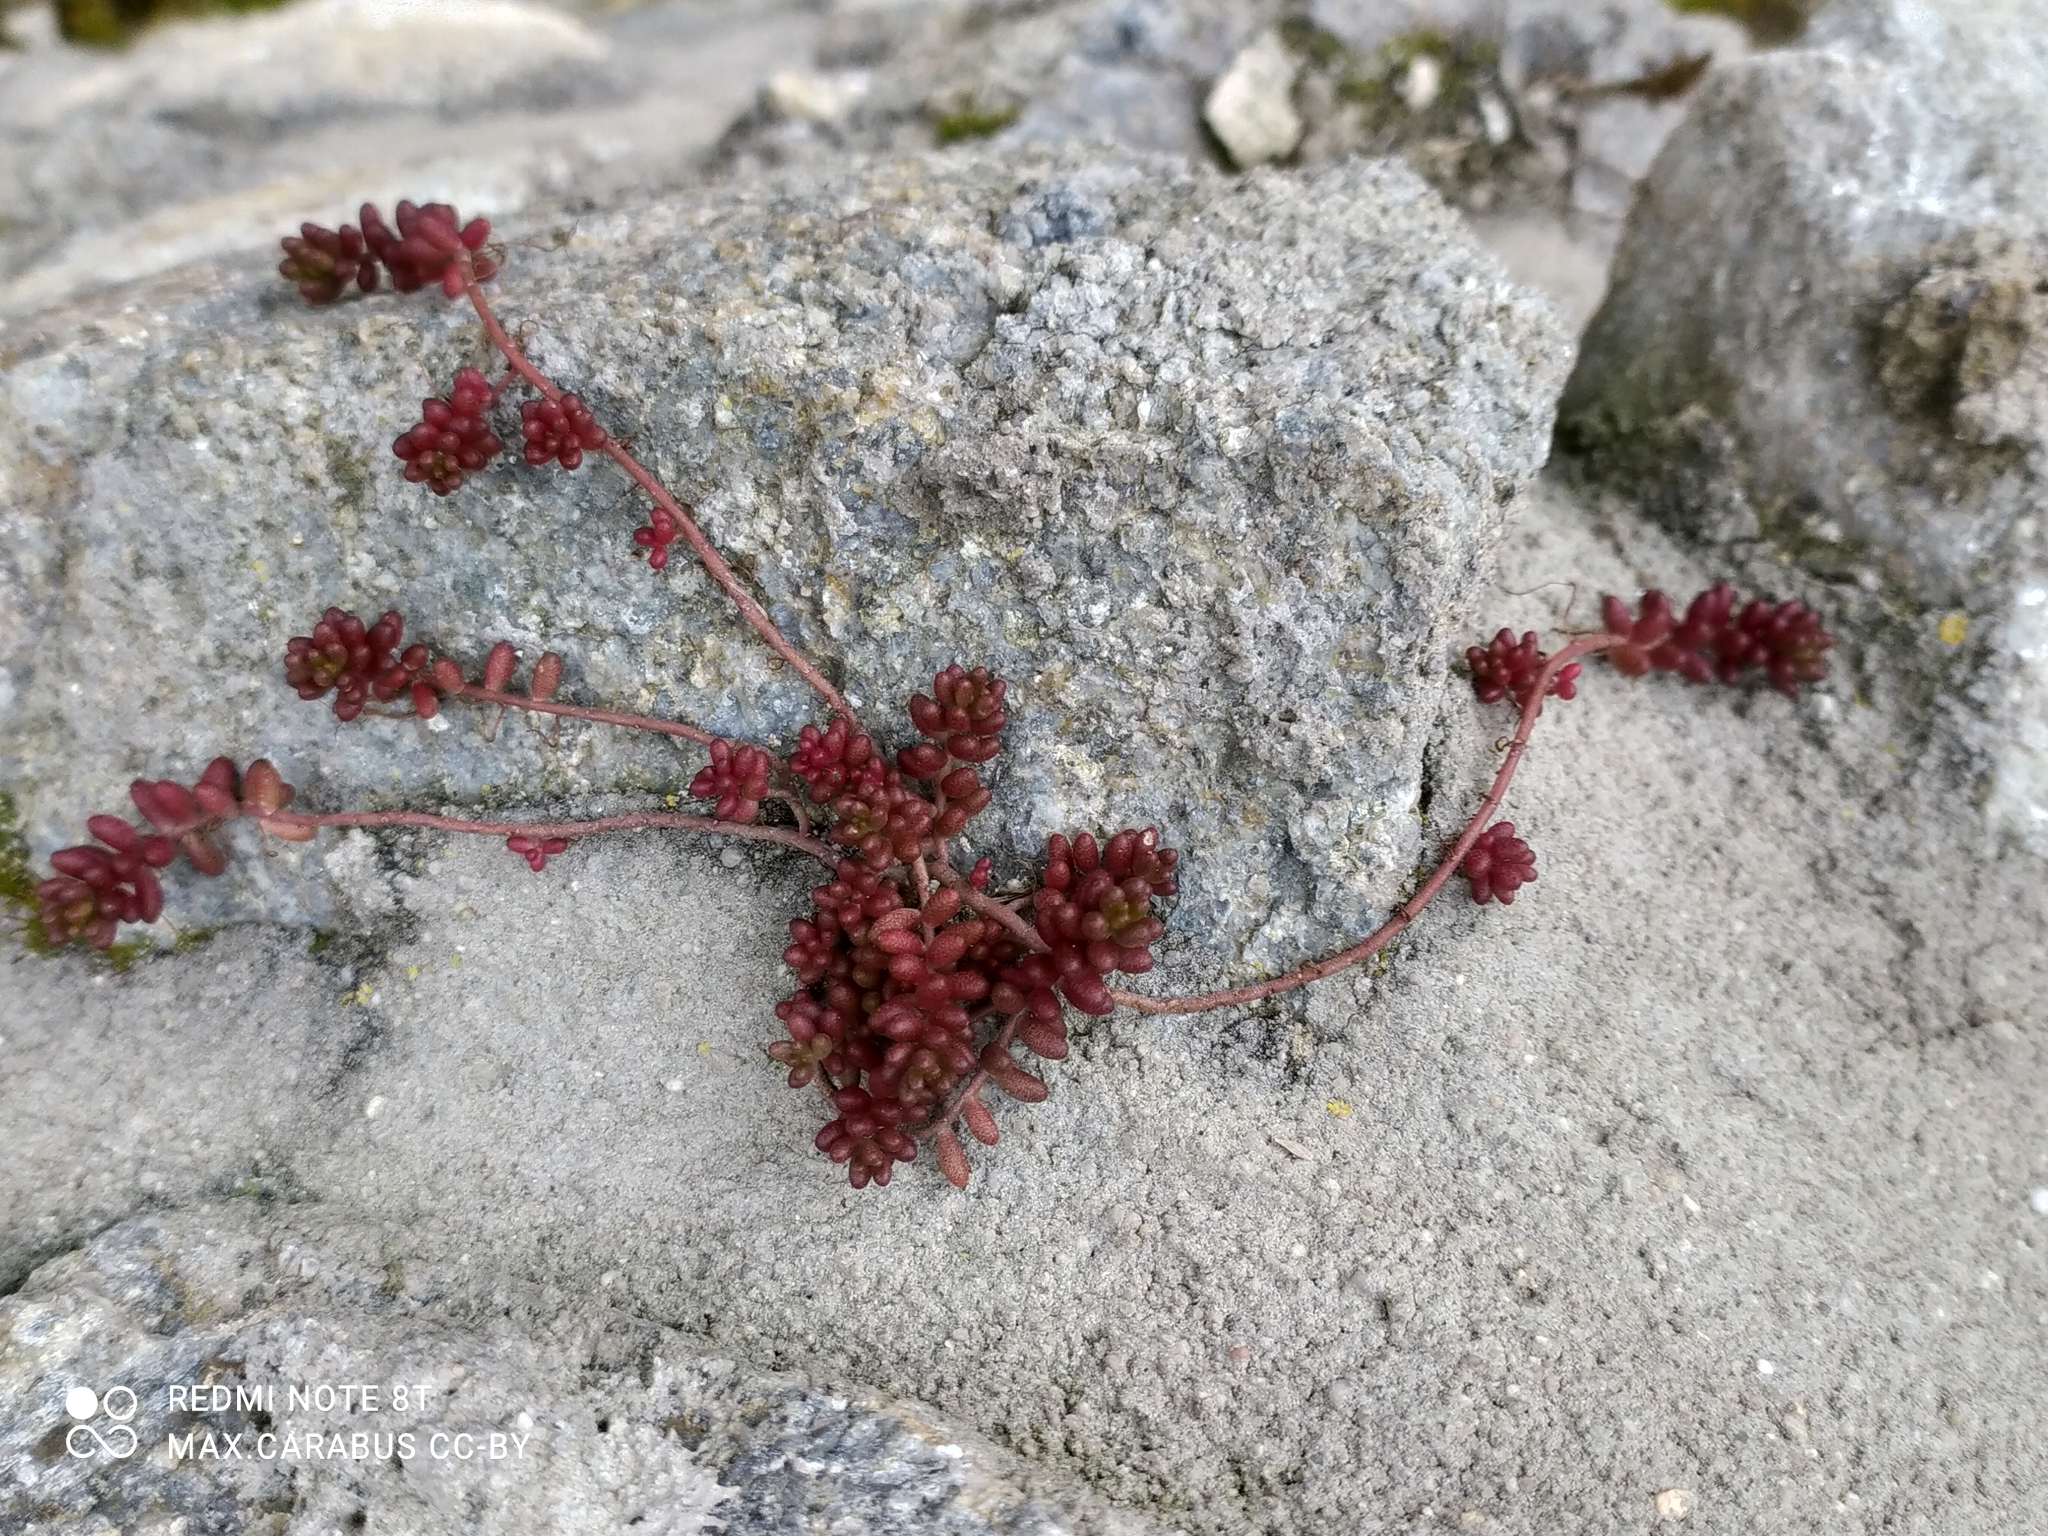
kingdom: Plantae
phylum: Tracheophyta
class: Magnoliopsida
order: Saxifragales
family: Crassulaceae
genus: Sedum
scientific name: Sedum album
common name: White stonecrop
